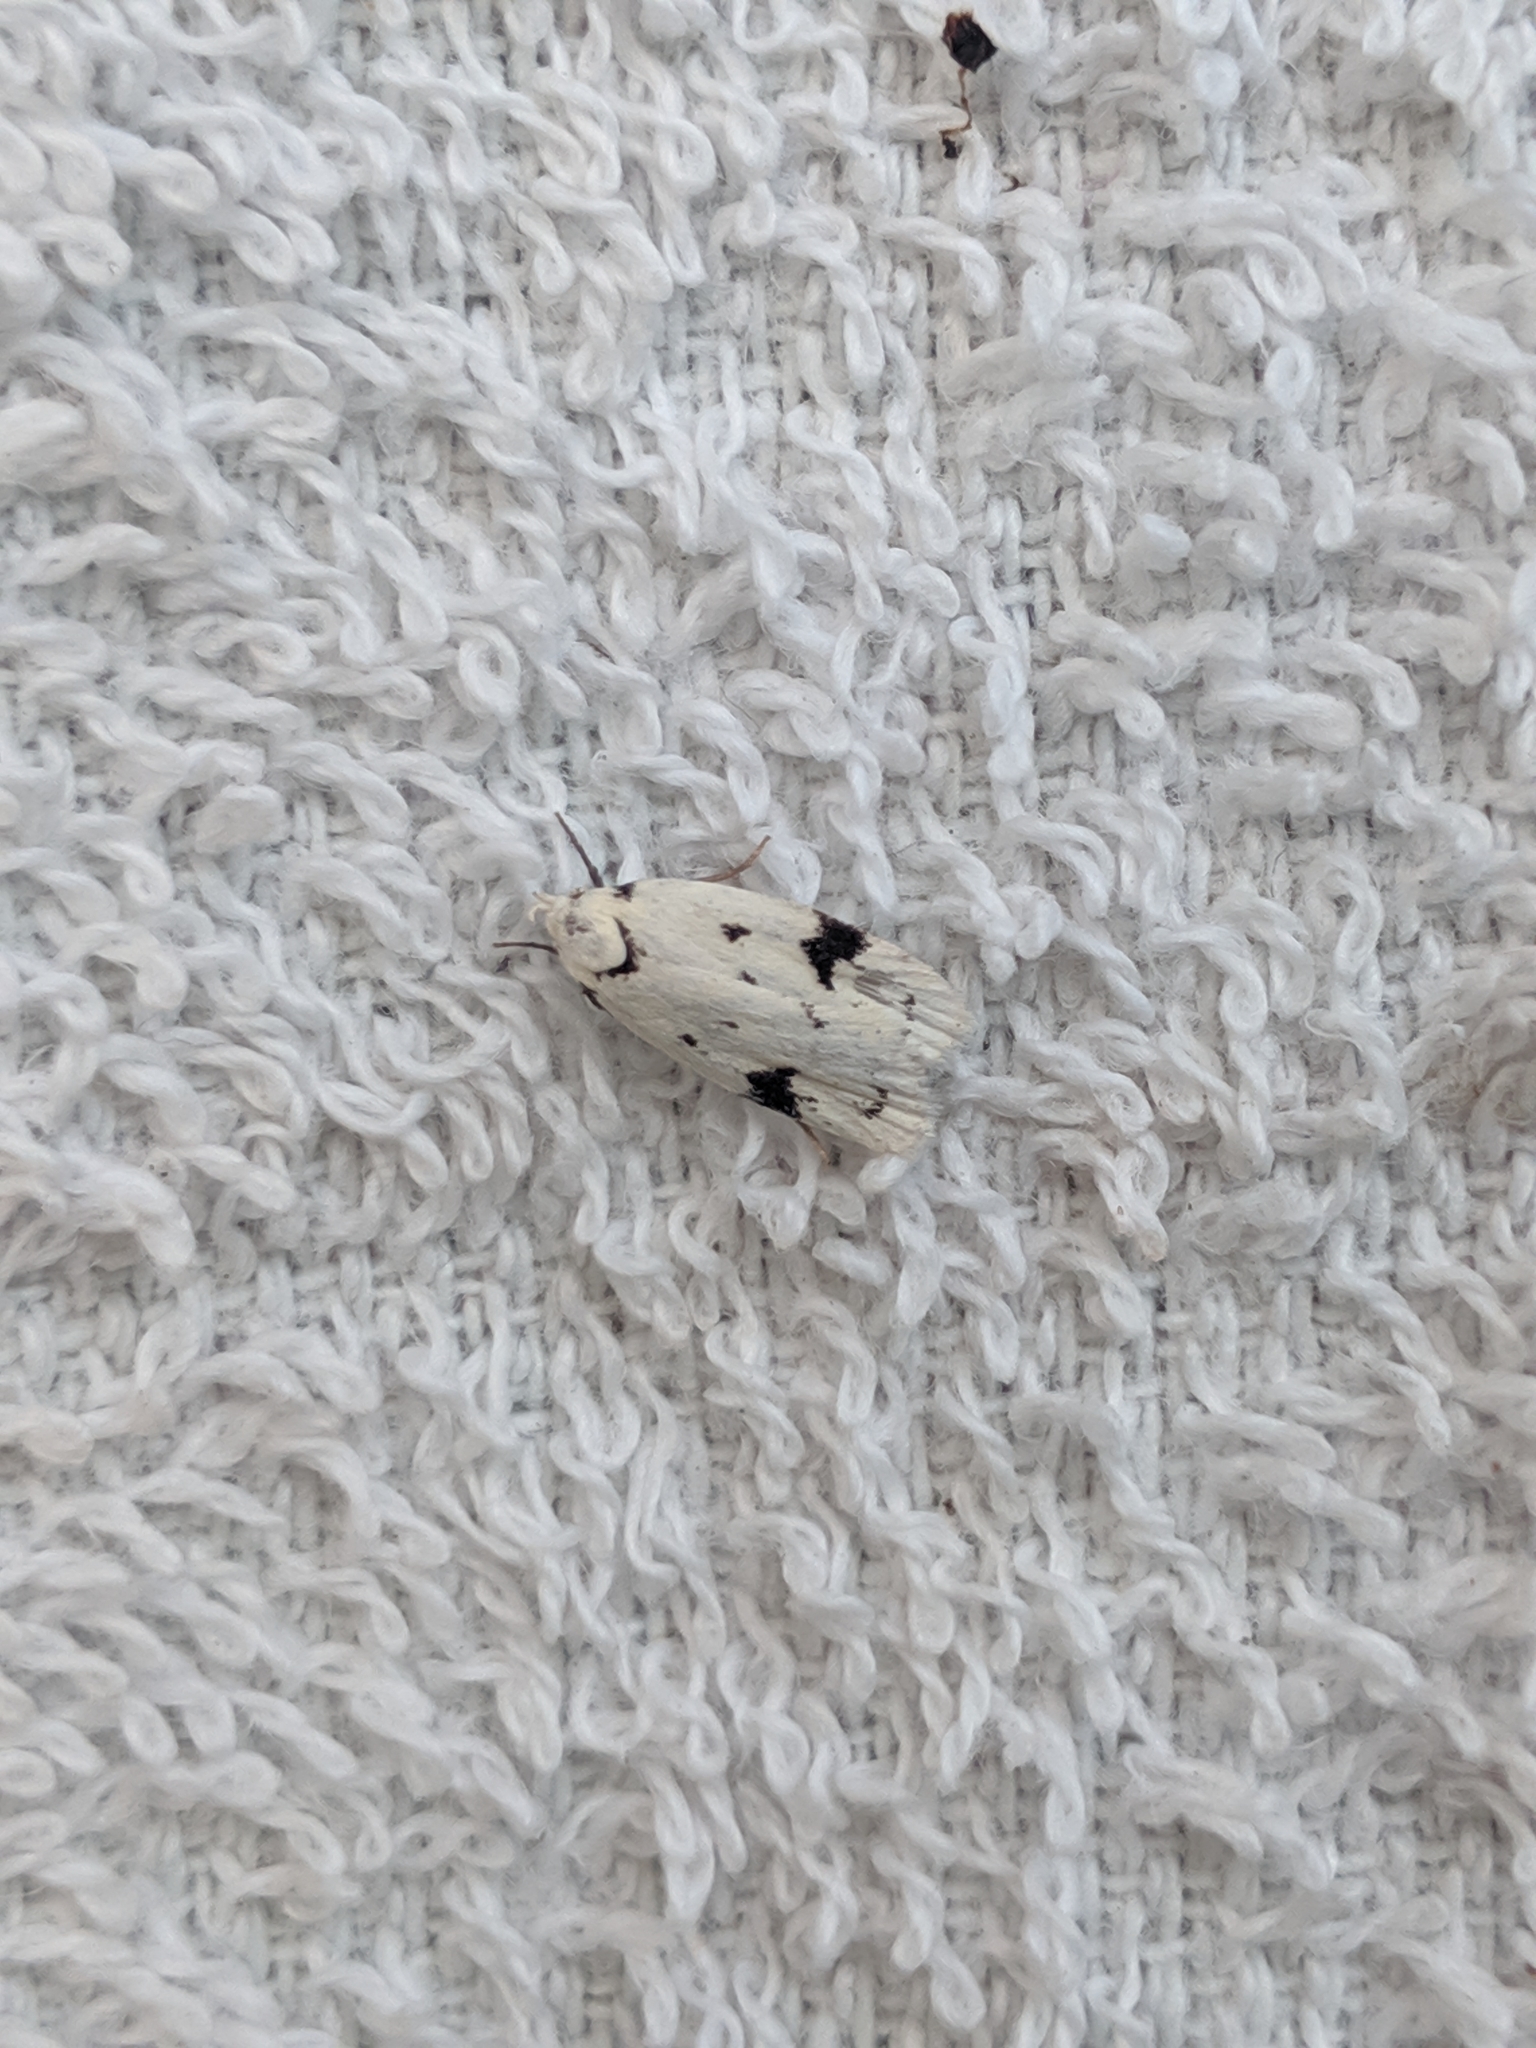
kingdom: Animalia
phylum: Arthropoda
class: Insecta
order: Lepidoptera
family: Oecophoridae
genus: Inga
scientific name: Inga sparsiciliella
